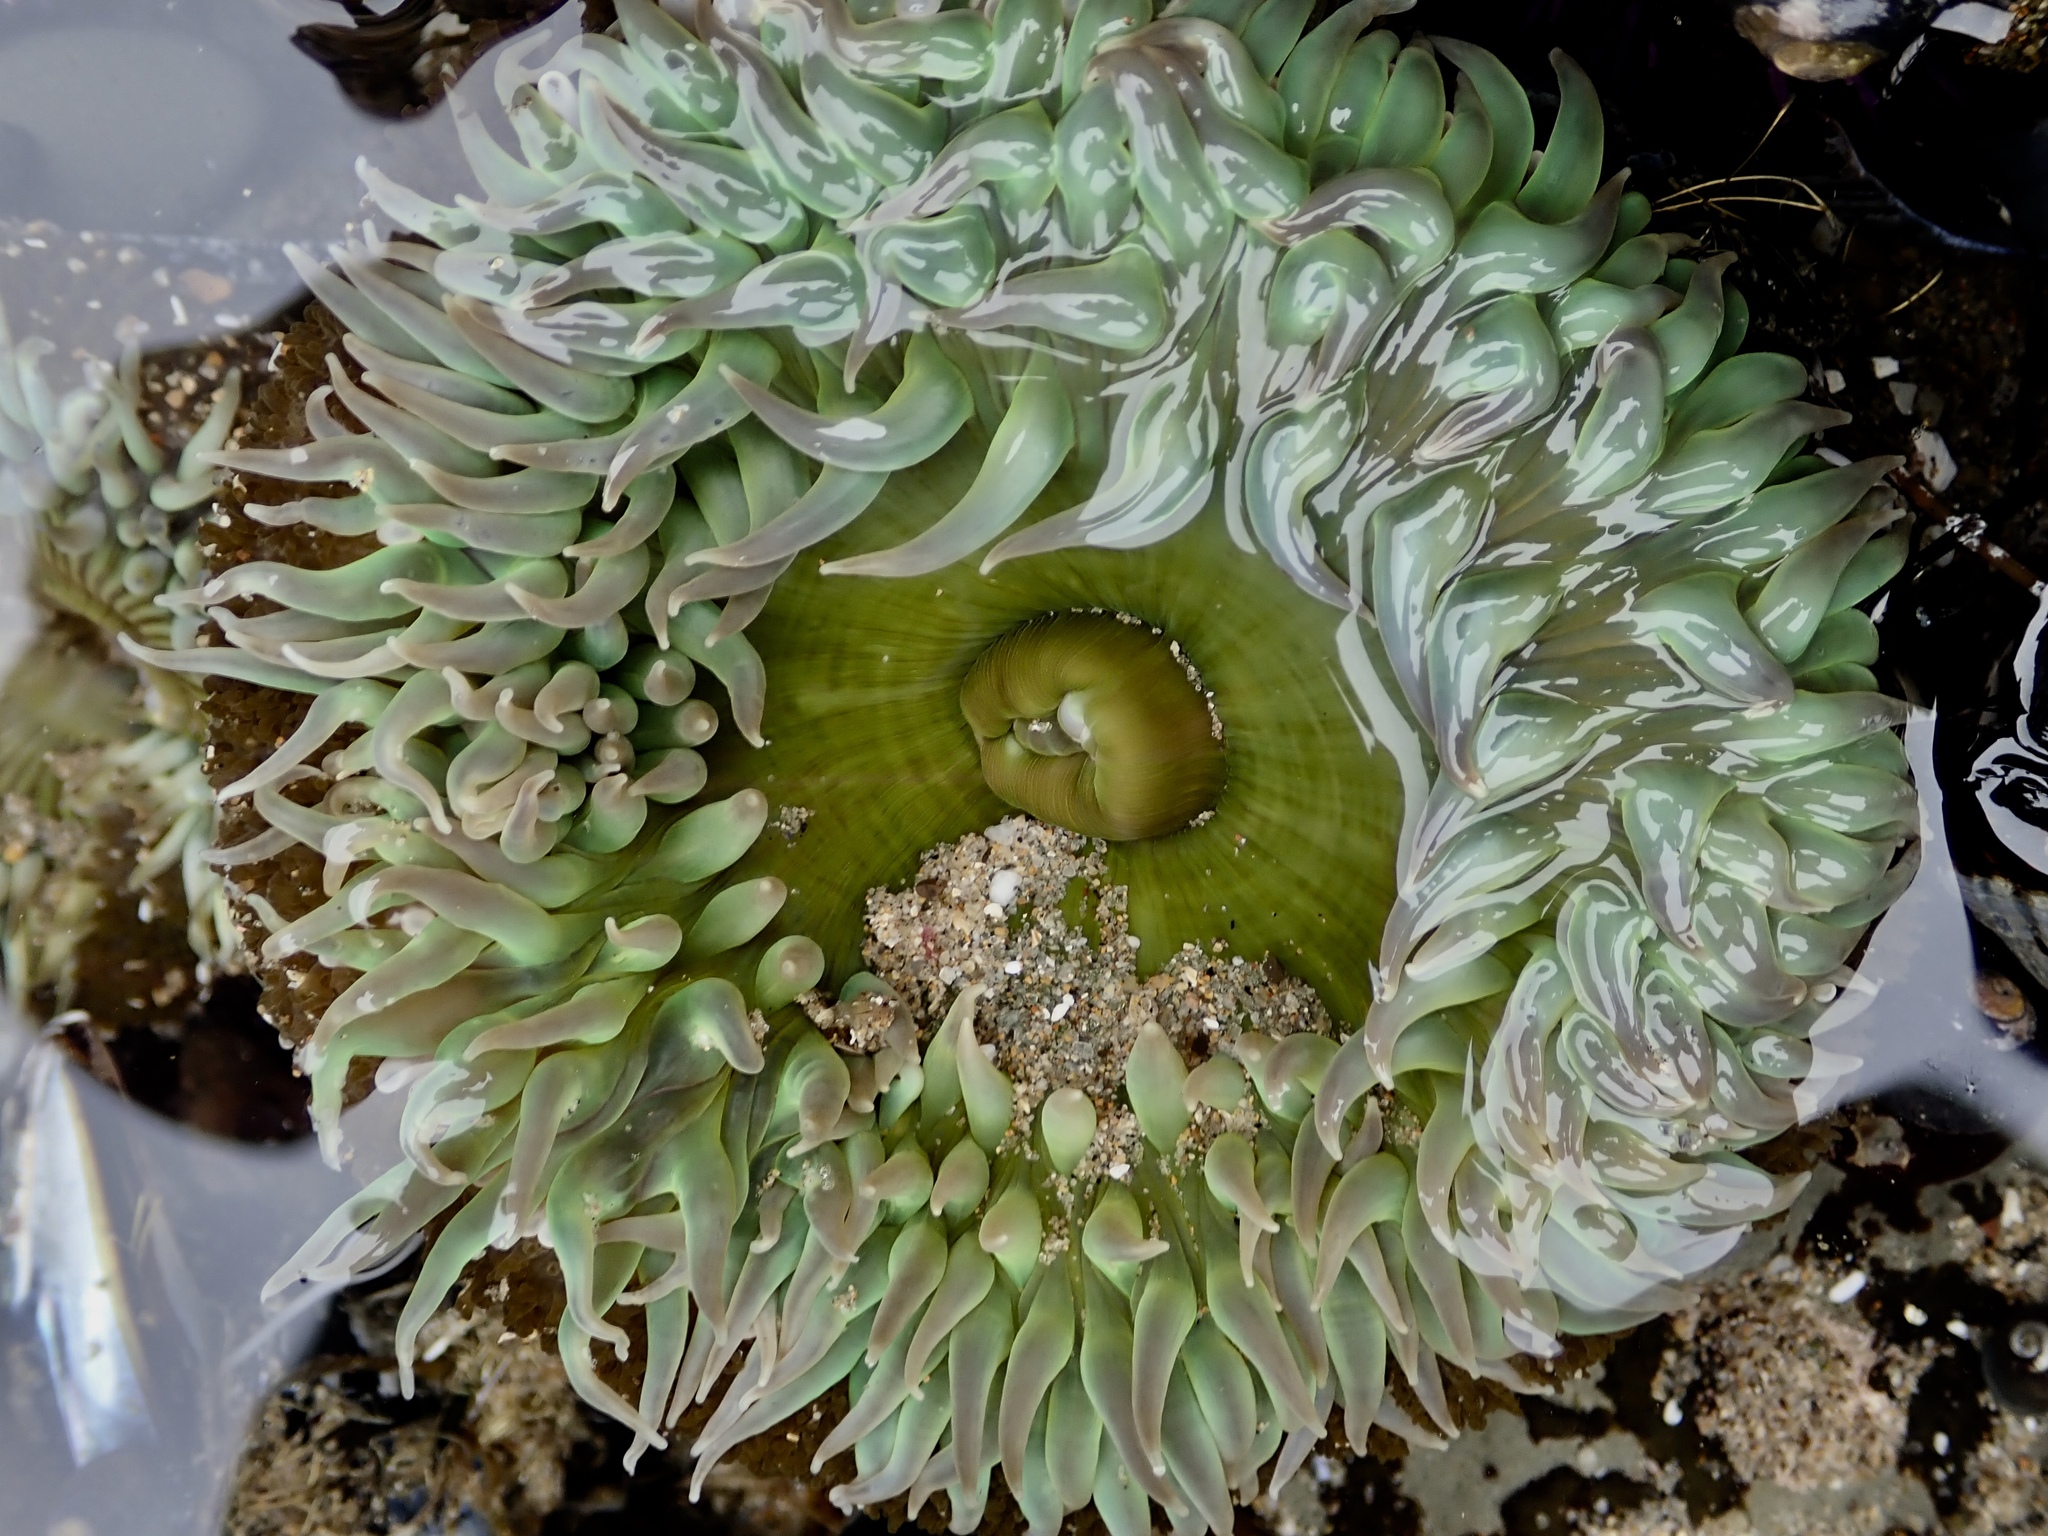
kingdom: Animalia
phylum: Cnidaria
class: Anthozoa
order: Actiniaria
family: Actiniidae
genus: Anthopleura
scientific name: Anthopleura xanthogrammica
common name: Giant green anemone
